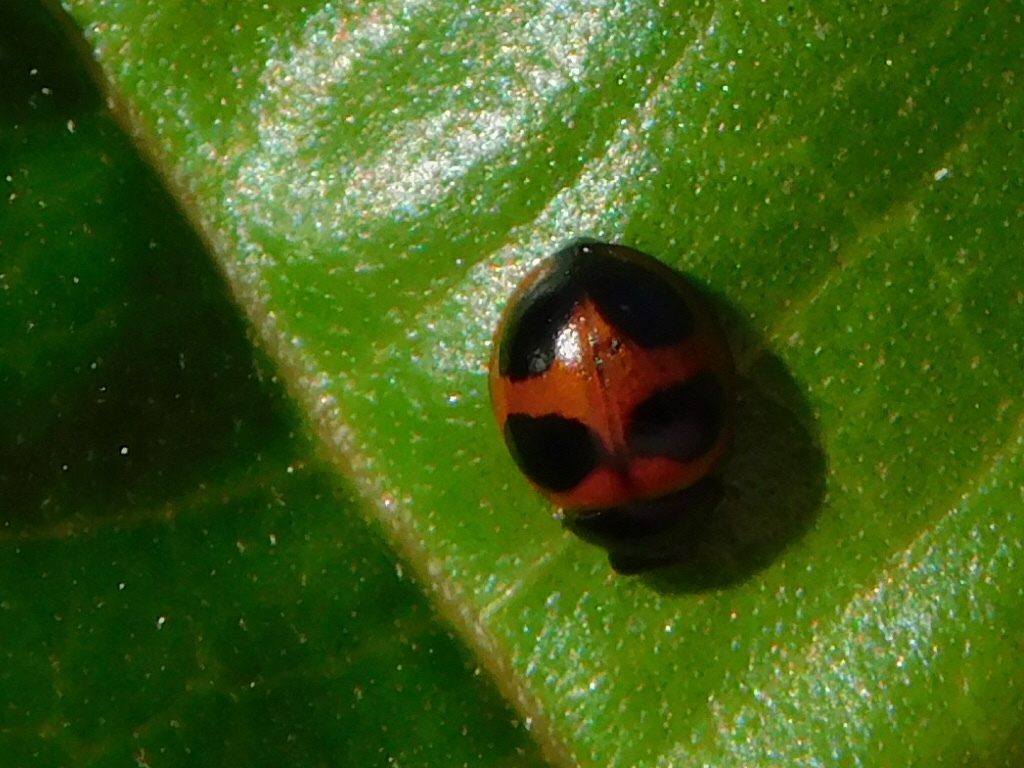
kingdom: Animalia
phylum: Arthropoda
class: Insecta
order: Coleoptera
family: Coccinellidae
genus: Exochomus
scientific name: Exochomus childreni
